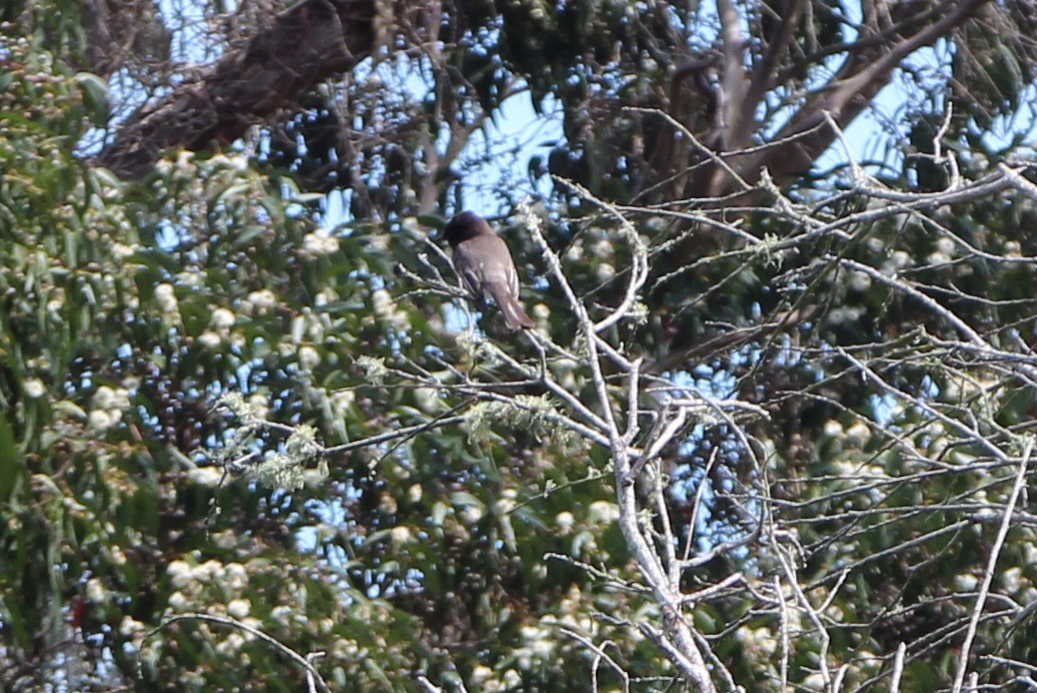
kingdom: Animalia
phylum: Chordata
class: Aves
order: Passeriformes
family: Tyrannidae
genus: Sayornis
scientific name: Sayornis nigricans
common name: Black phoebe
